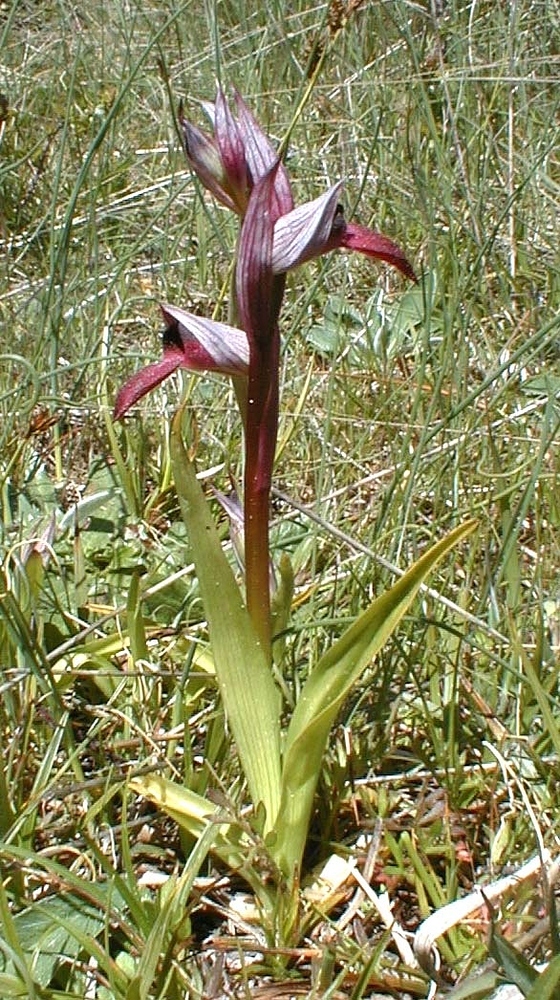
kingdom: Plantae
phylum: Tracheophyta
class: Liliopsida
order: Asparagales
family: Orchidaceae
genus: Serapias
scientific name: Serapias lingua
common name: Tongue-orchid
